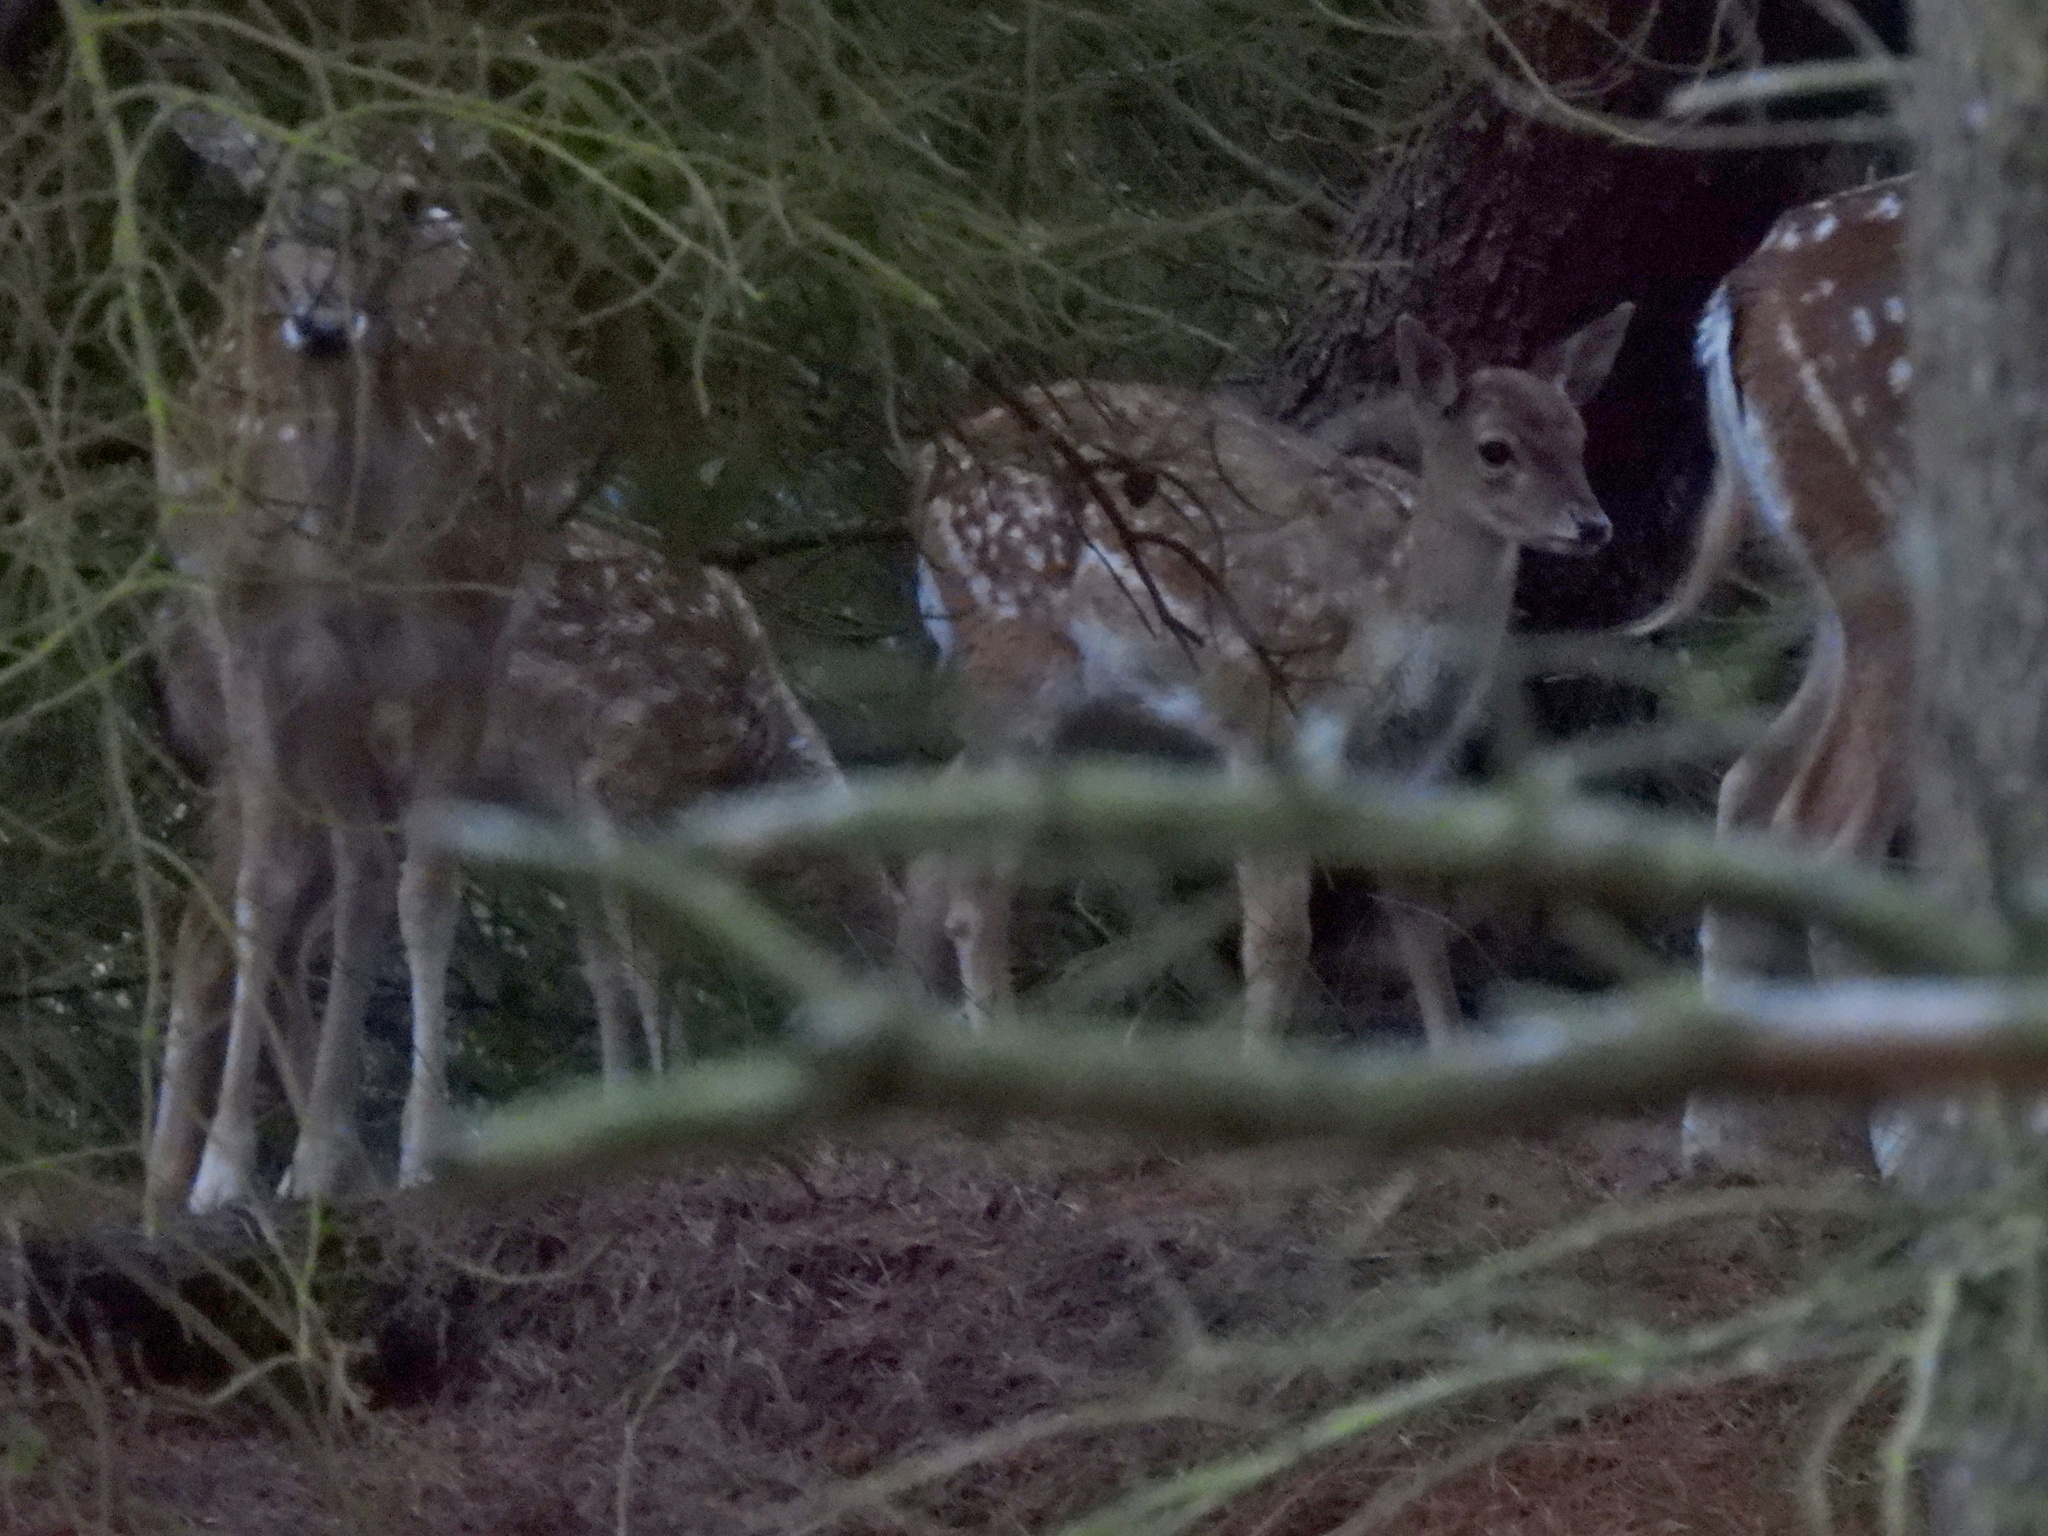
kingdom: Animalia
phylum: Chordata
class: Mammalia
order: Artiodactyla
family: Cervidae
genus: Dama
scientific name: Dama dama
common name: Fallow deer
